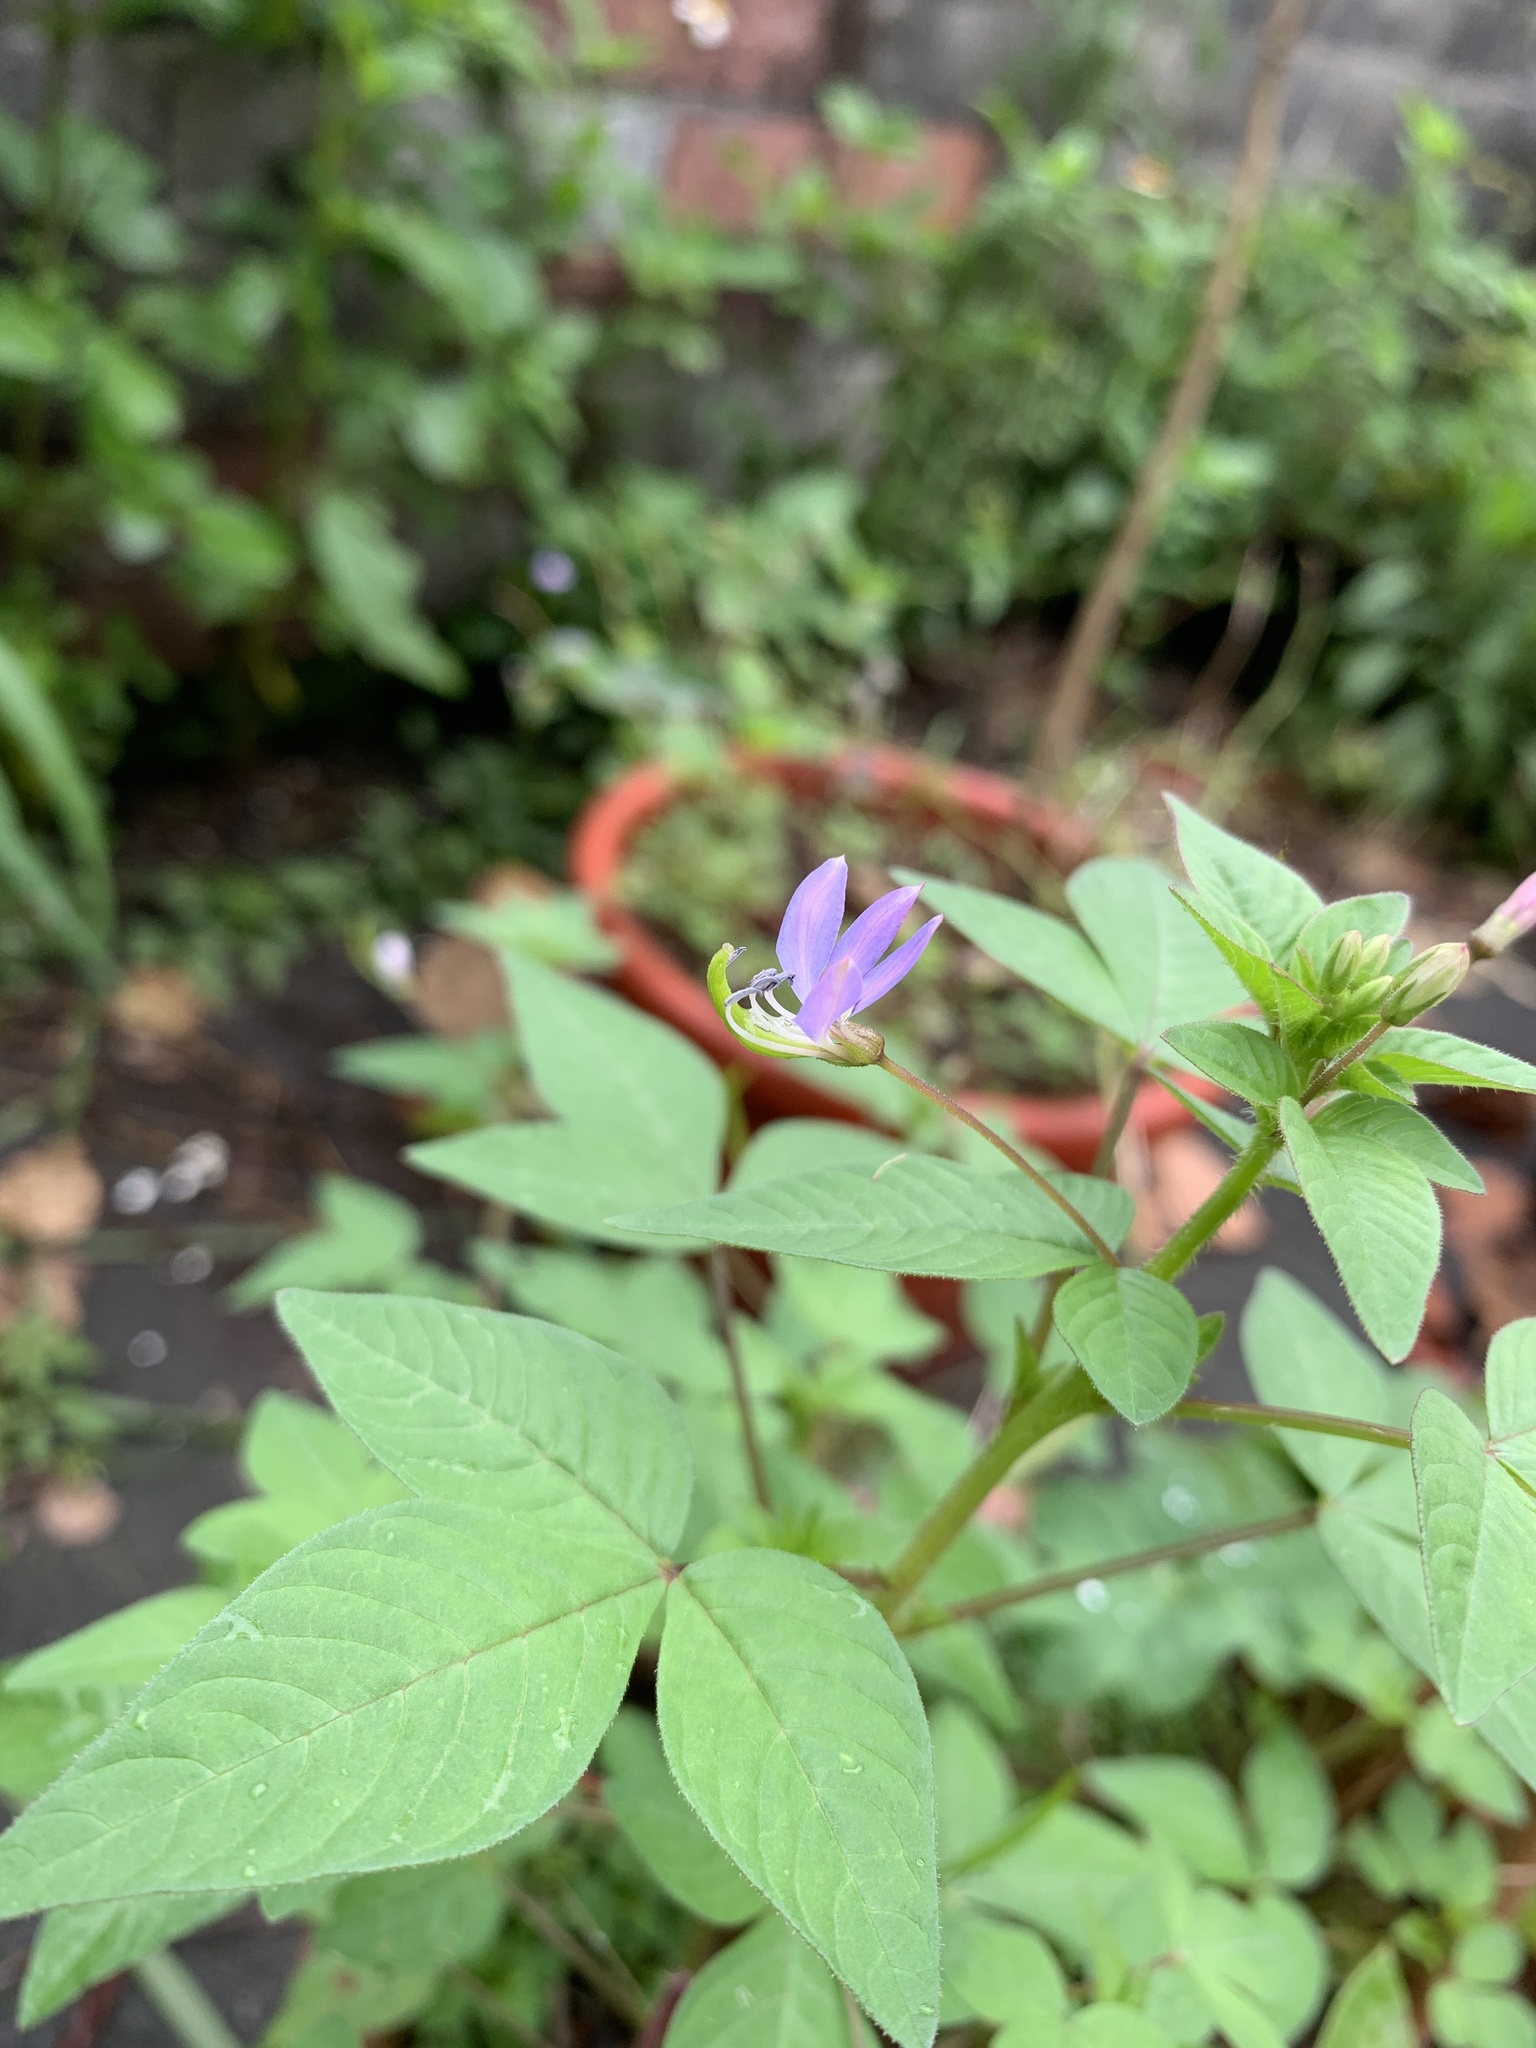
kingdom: Plantae
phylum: Tracheophyta
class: Magnoliopsida
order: Brassicales
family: Cleomaceae
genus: Sieruela
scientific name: Sieruela rutidosperma
